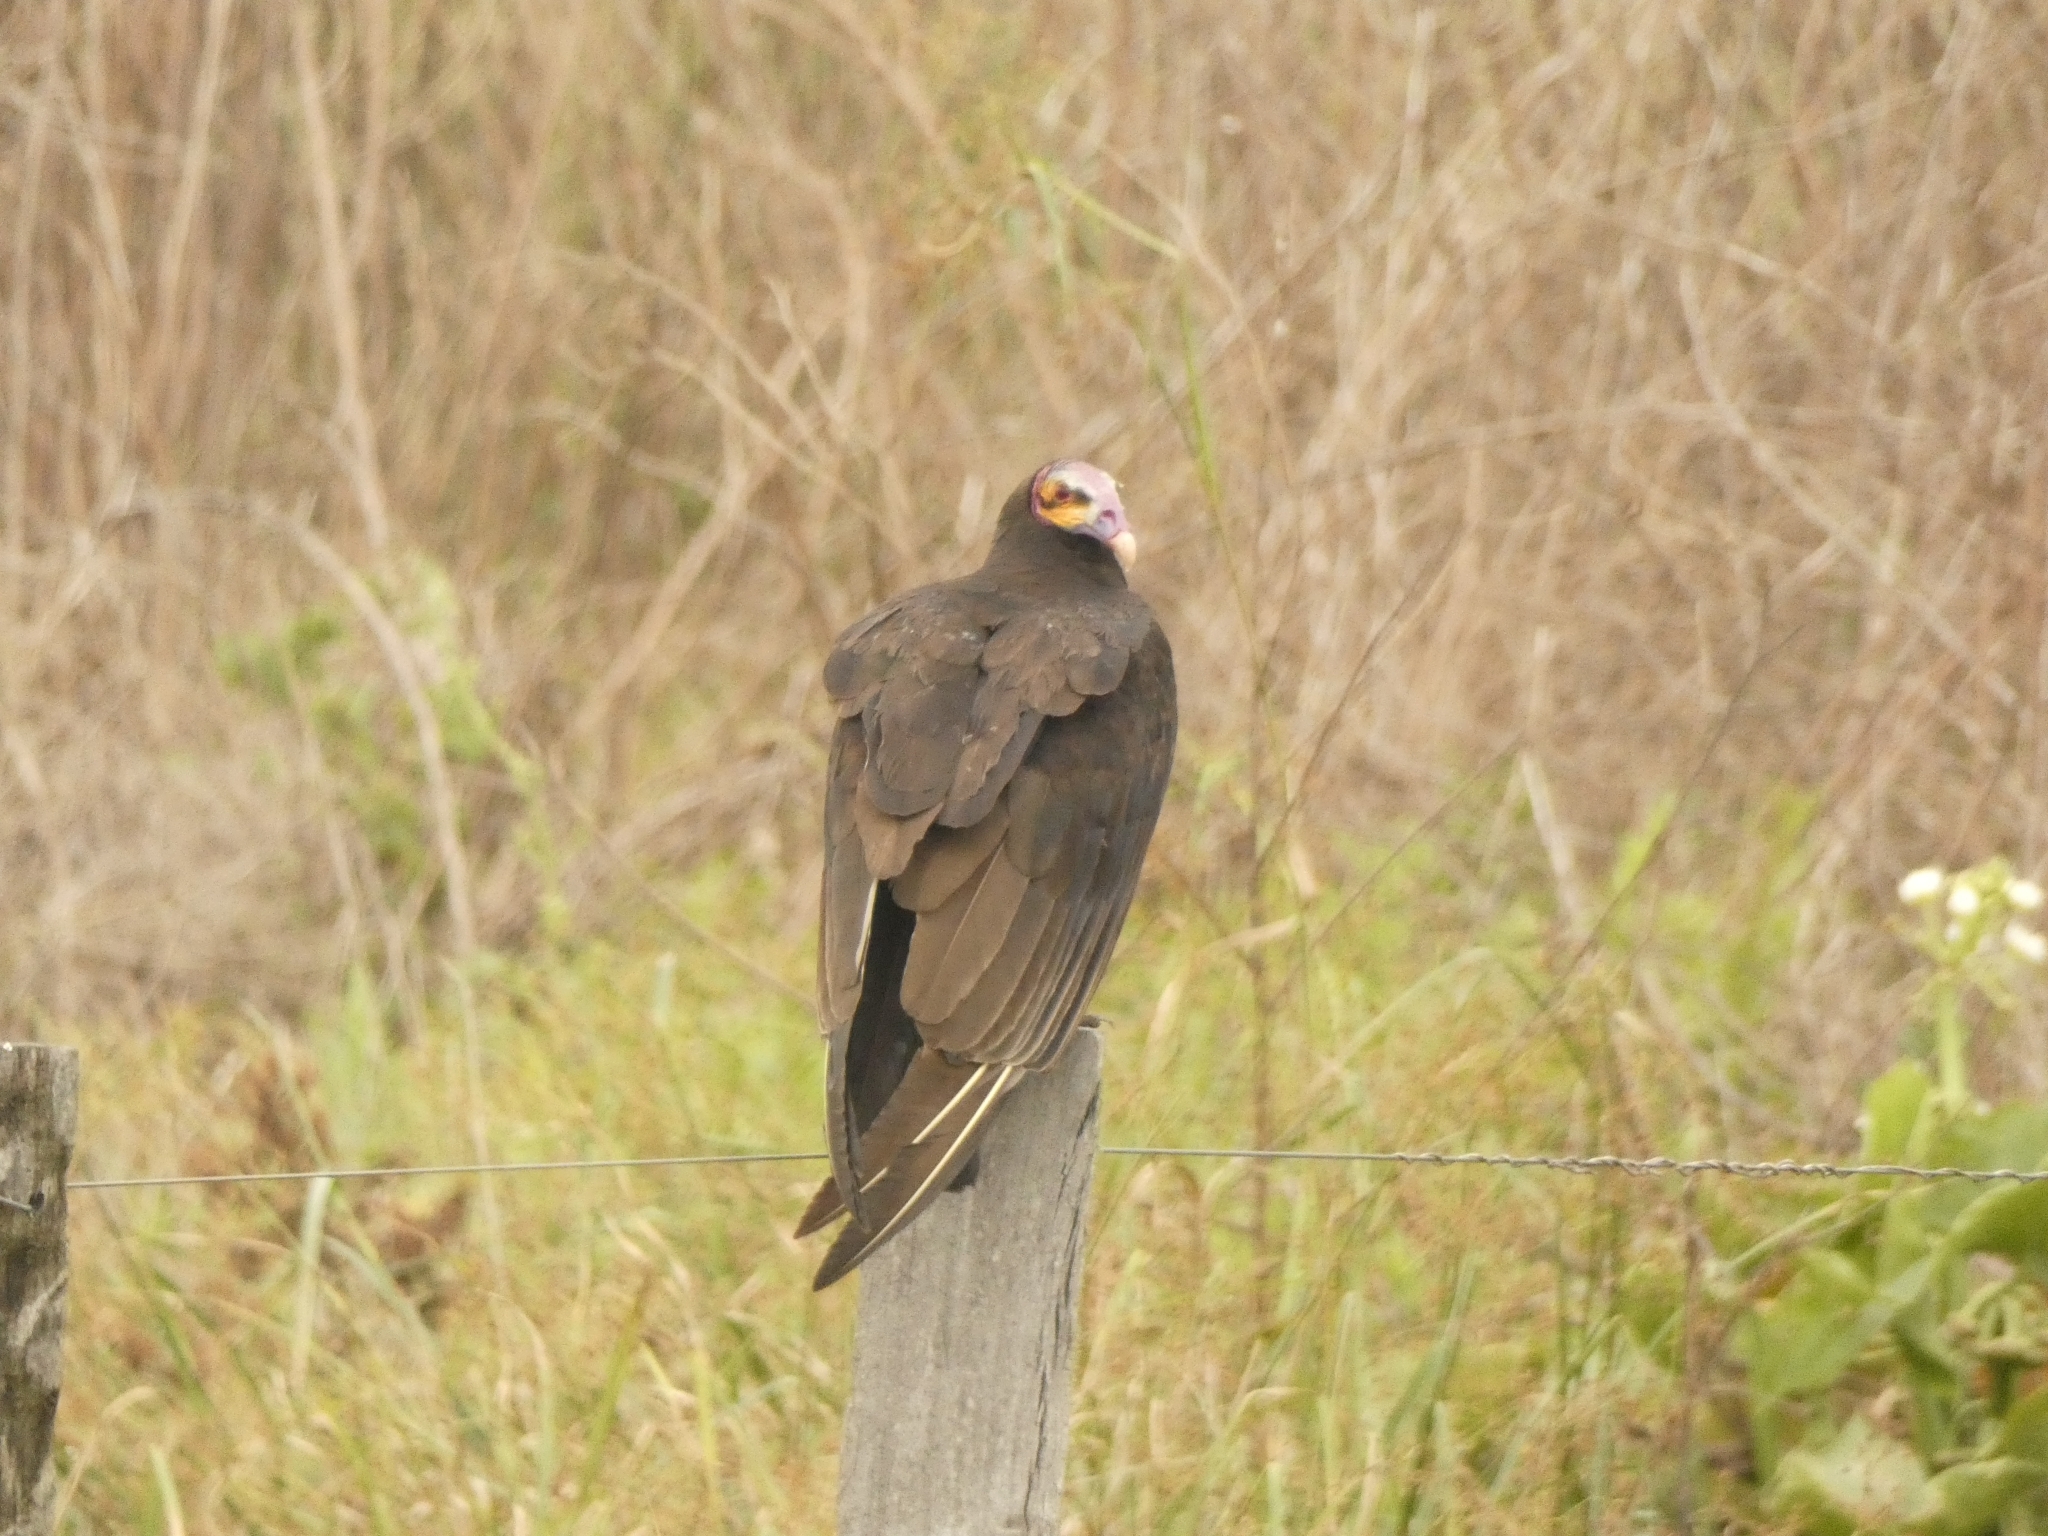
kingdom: Animalia
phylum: Chordata
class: Aves
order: Accipitriformes
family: Cathartidae
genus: Cathartes
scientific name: Cathartes burrovianus
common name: Lesser yellow-headed vulture
